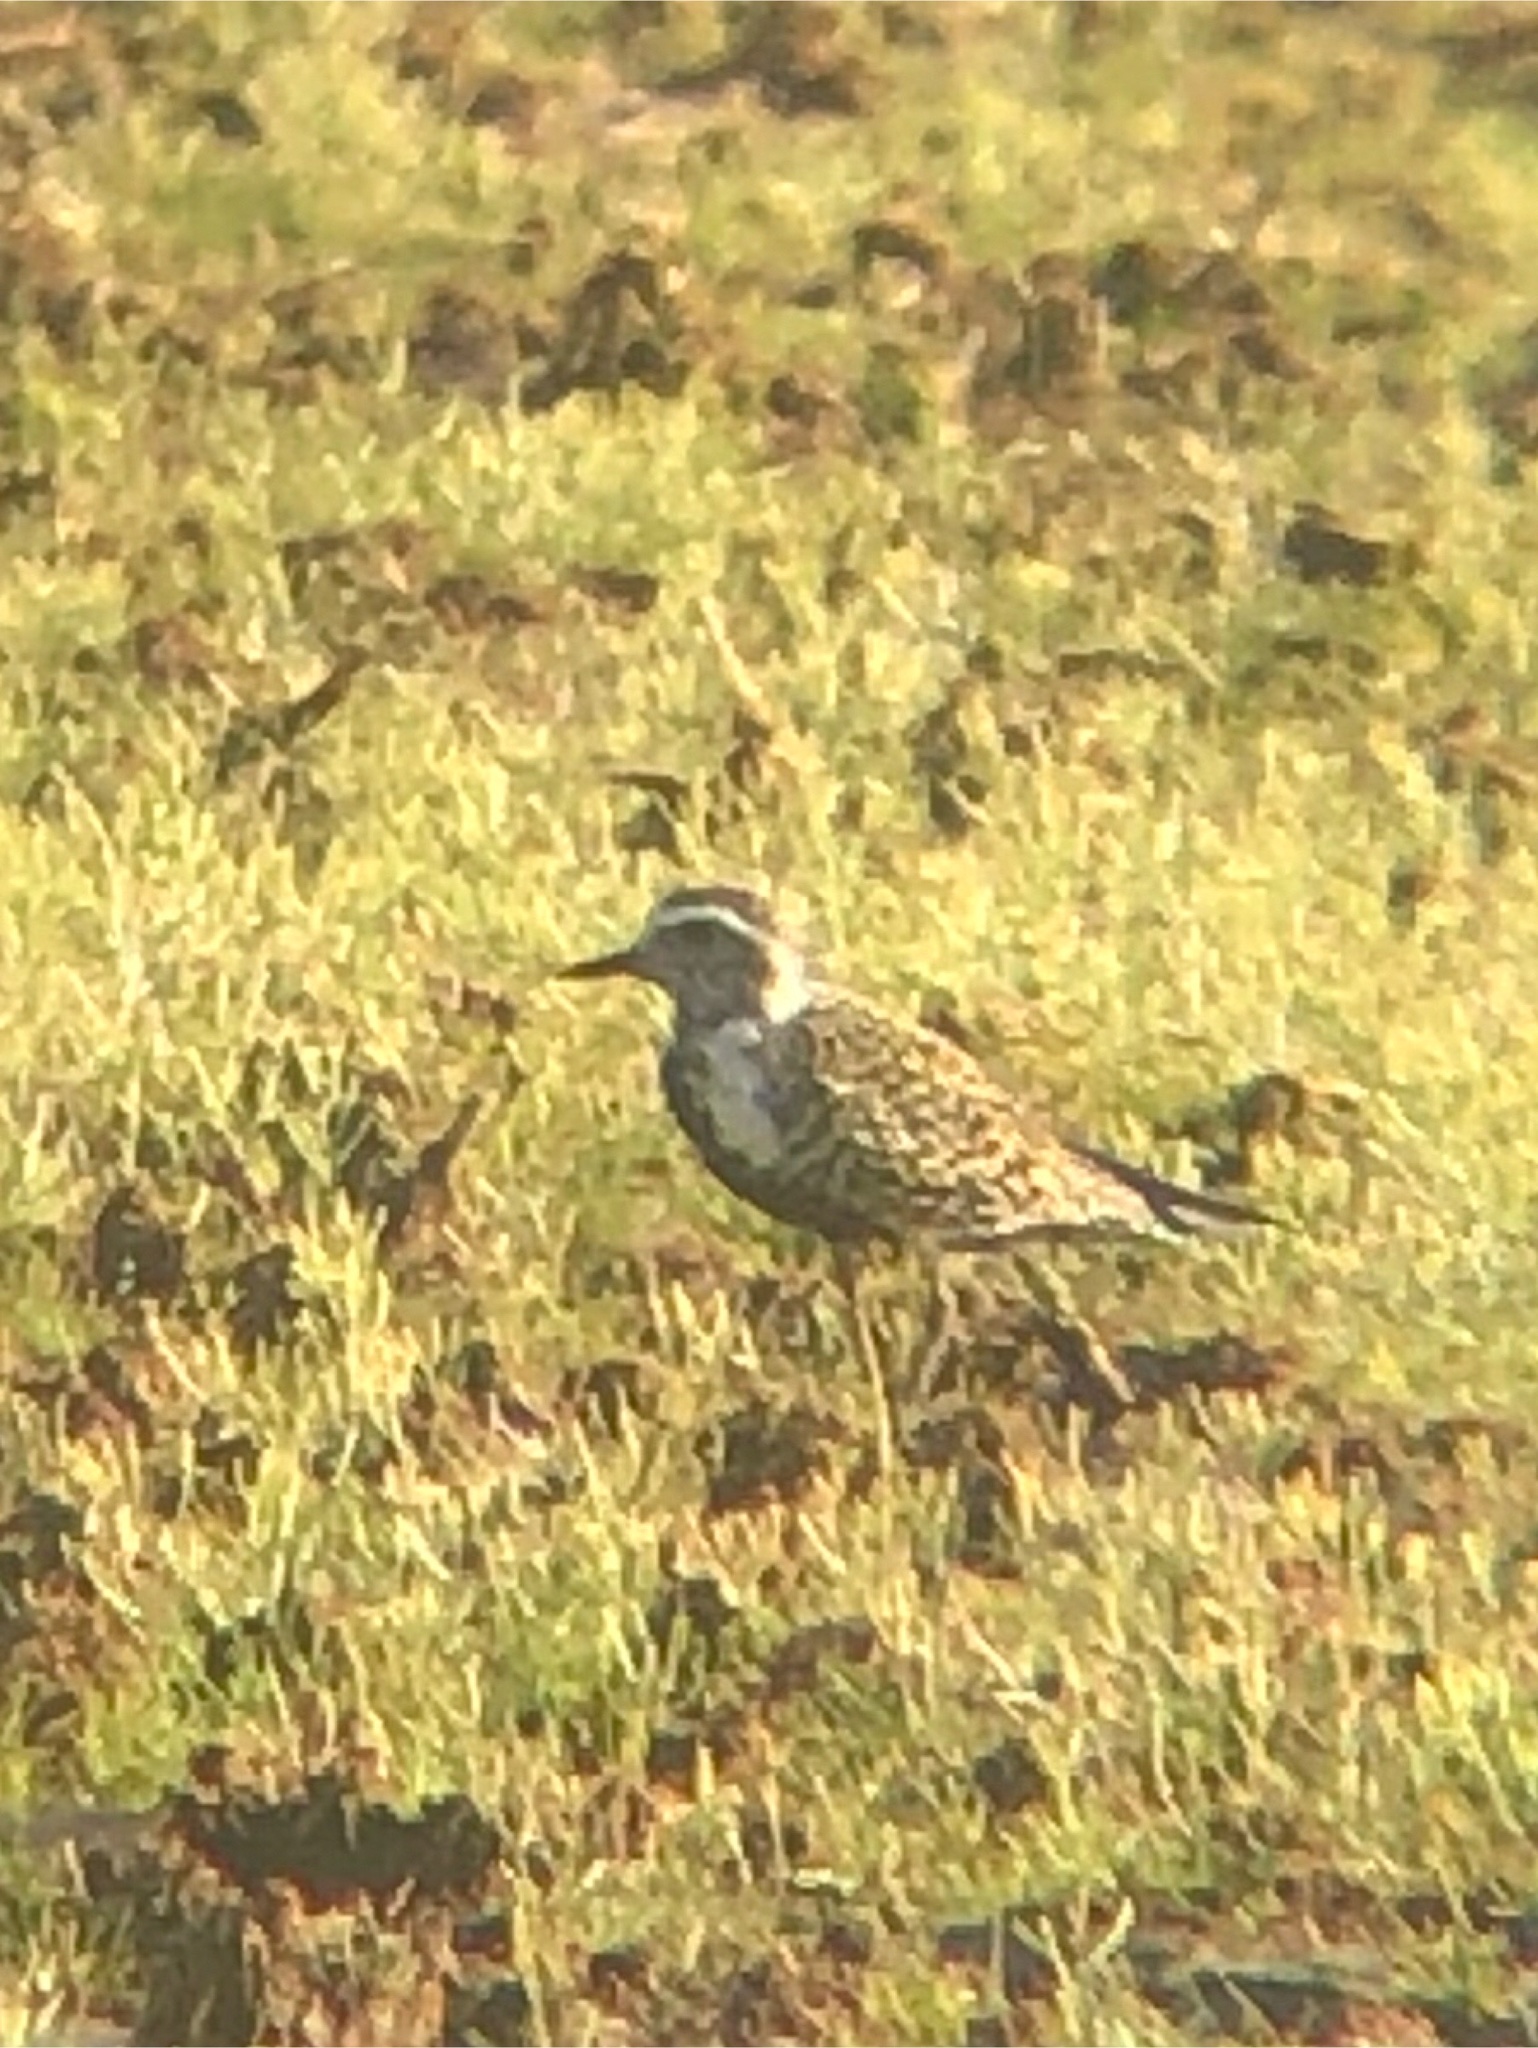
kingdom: Animalia
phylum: Chordata
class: Aves
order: Charadriiformes
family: Charadriidae
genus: Pluvialis
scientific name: Pluvialis dominica
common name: American golden plover
